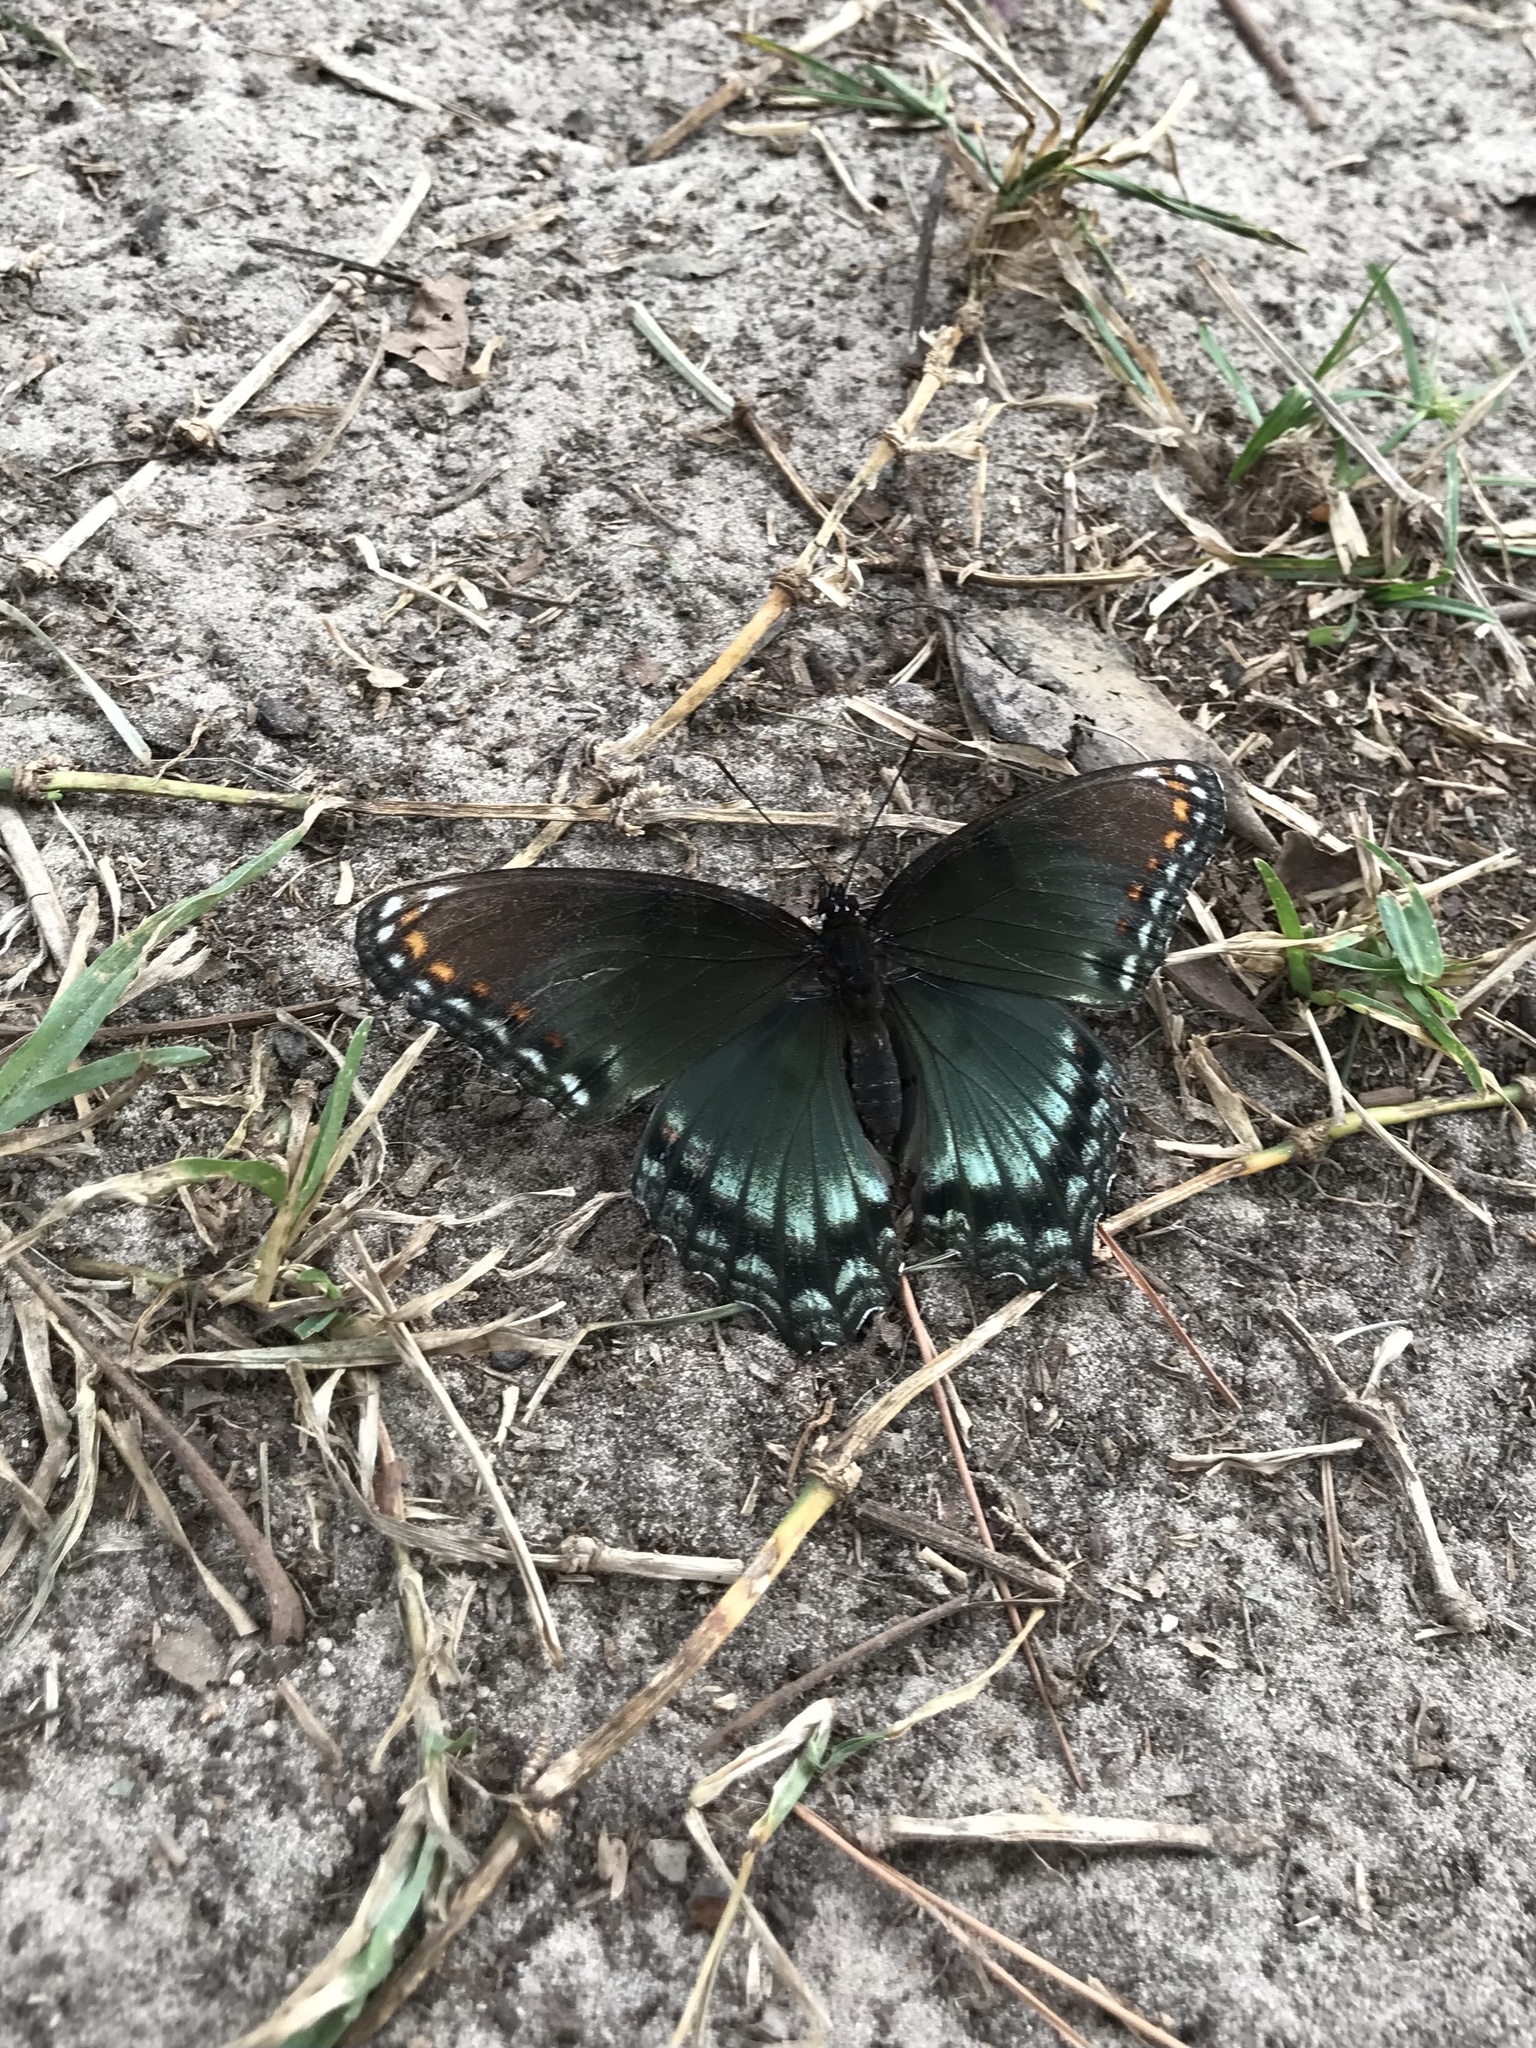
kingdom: Animalia
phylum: Arthropoda
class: Insecta
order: Lepidoptera
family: Nymphalidae
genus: Limenitis
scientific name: Limenitis astyanax
